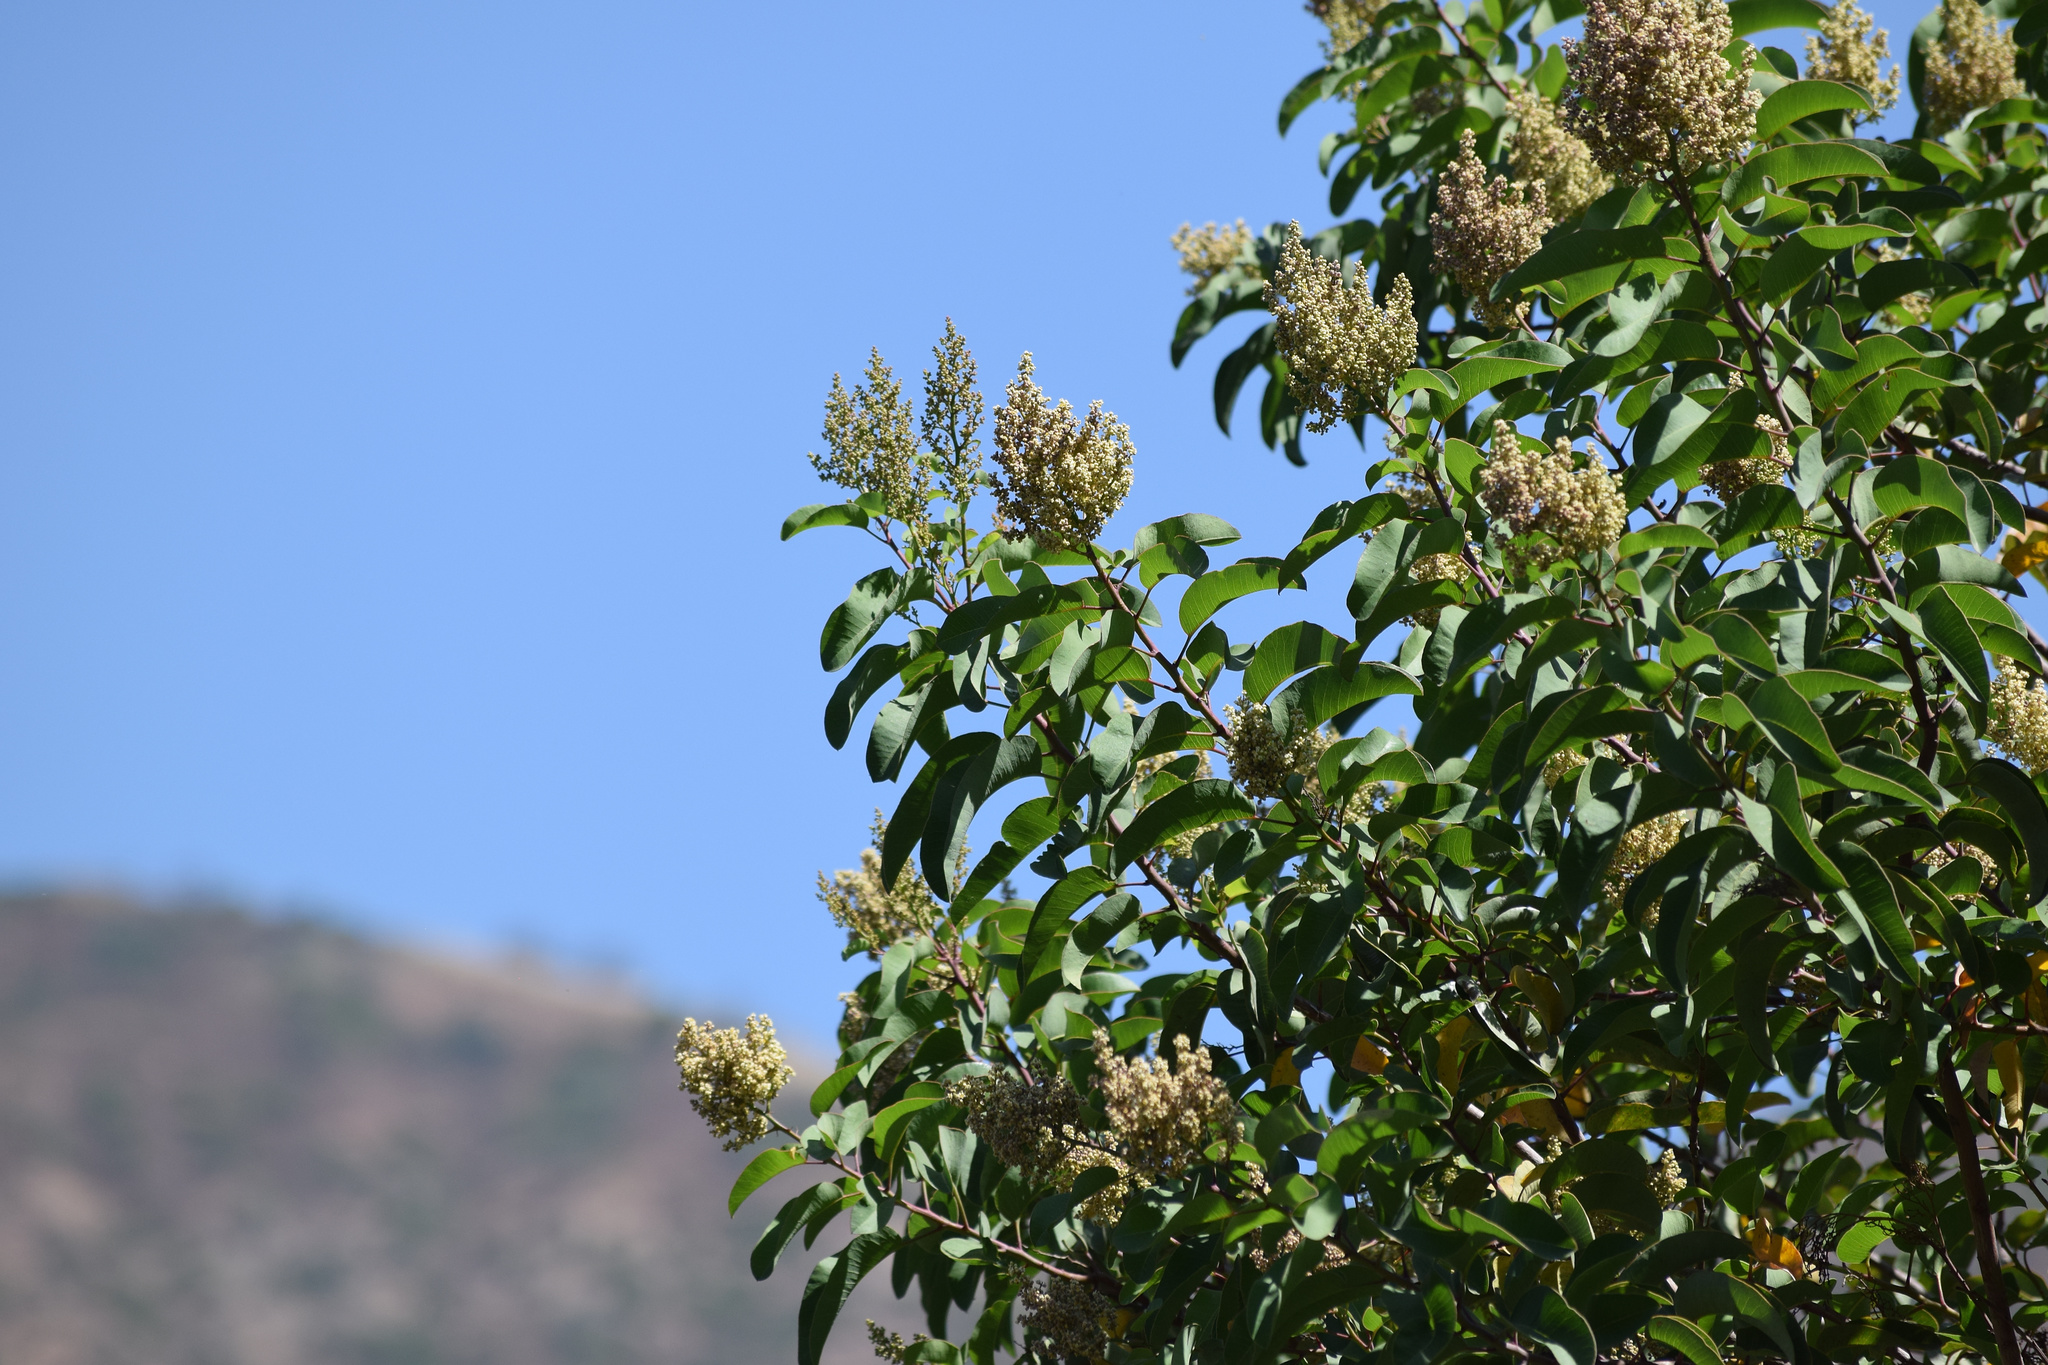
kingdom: Plantae
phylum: Tracheophyta
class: Magnoliopsida
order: Sapindales
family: Anacardiaceae
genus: Malosma
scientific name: Malosma laurina
